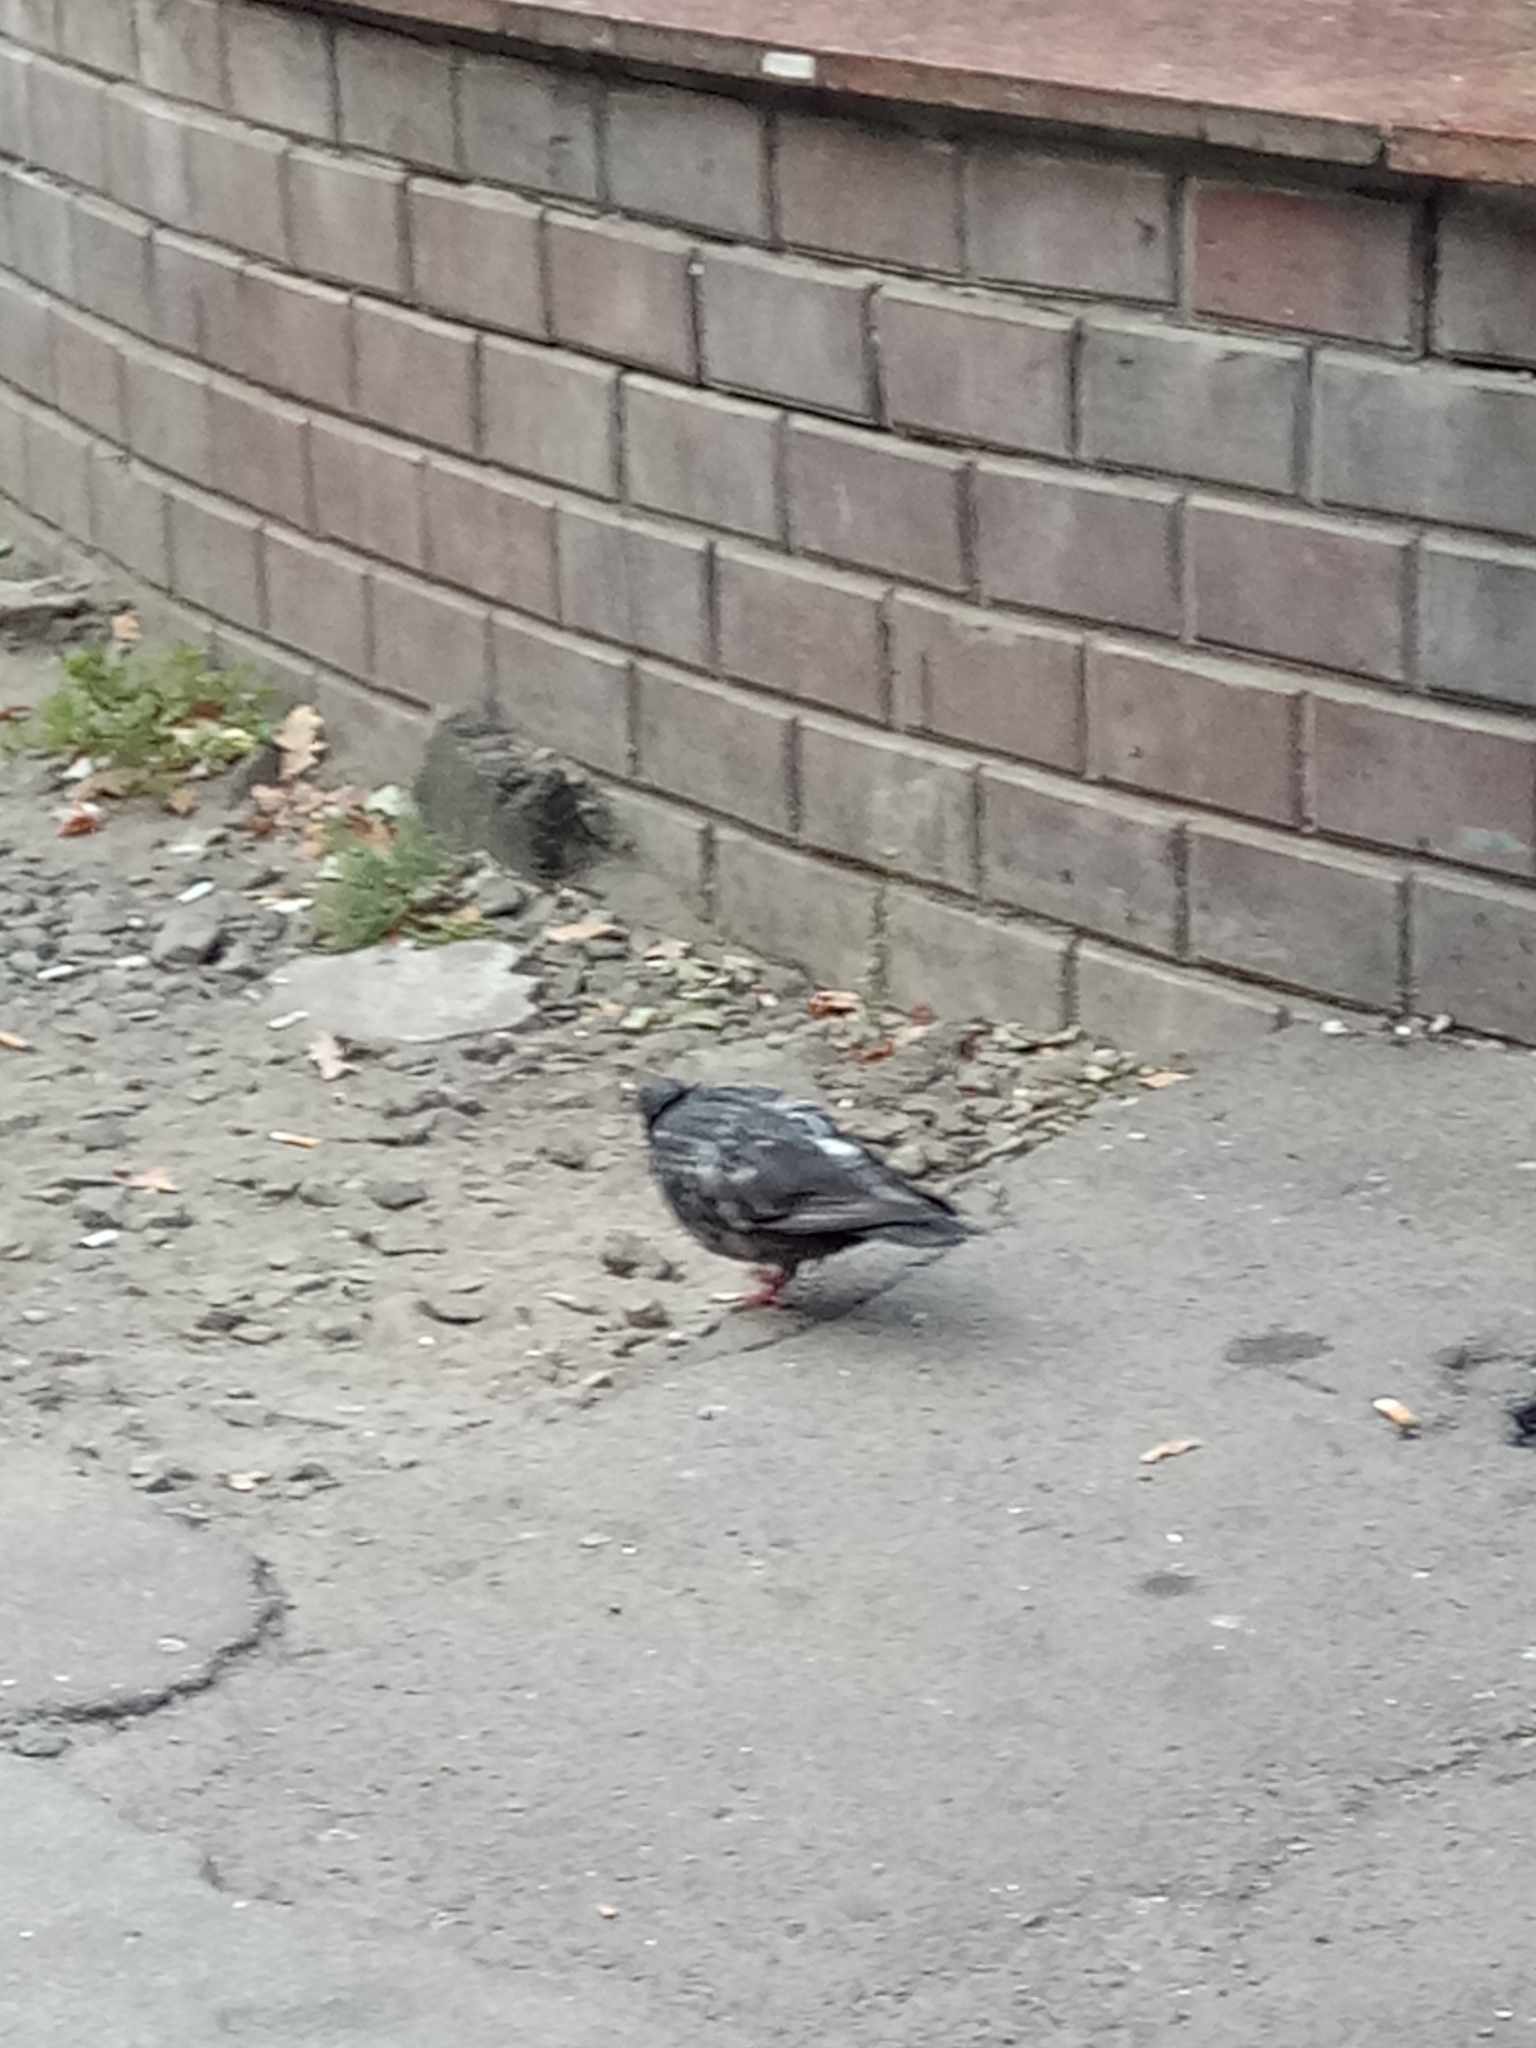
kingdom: Animalia
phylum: Chordata
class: Aves
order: Columbiformes
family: Columbidae
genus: Columba
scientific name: Columba livia
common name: Rock pigeon
